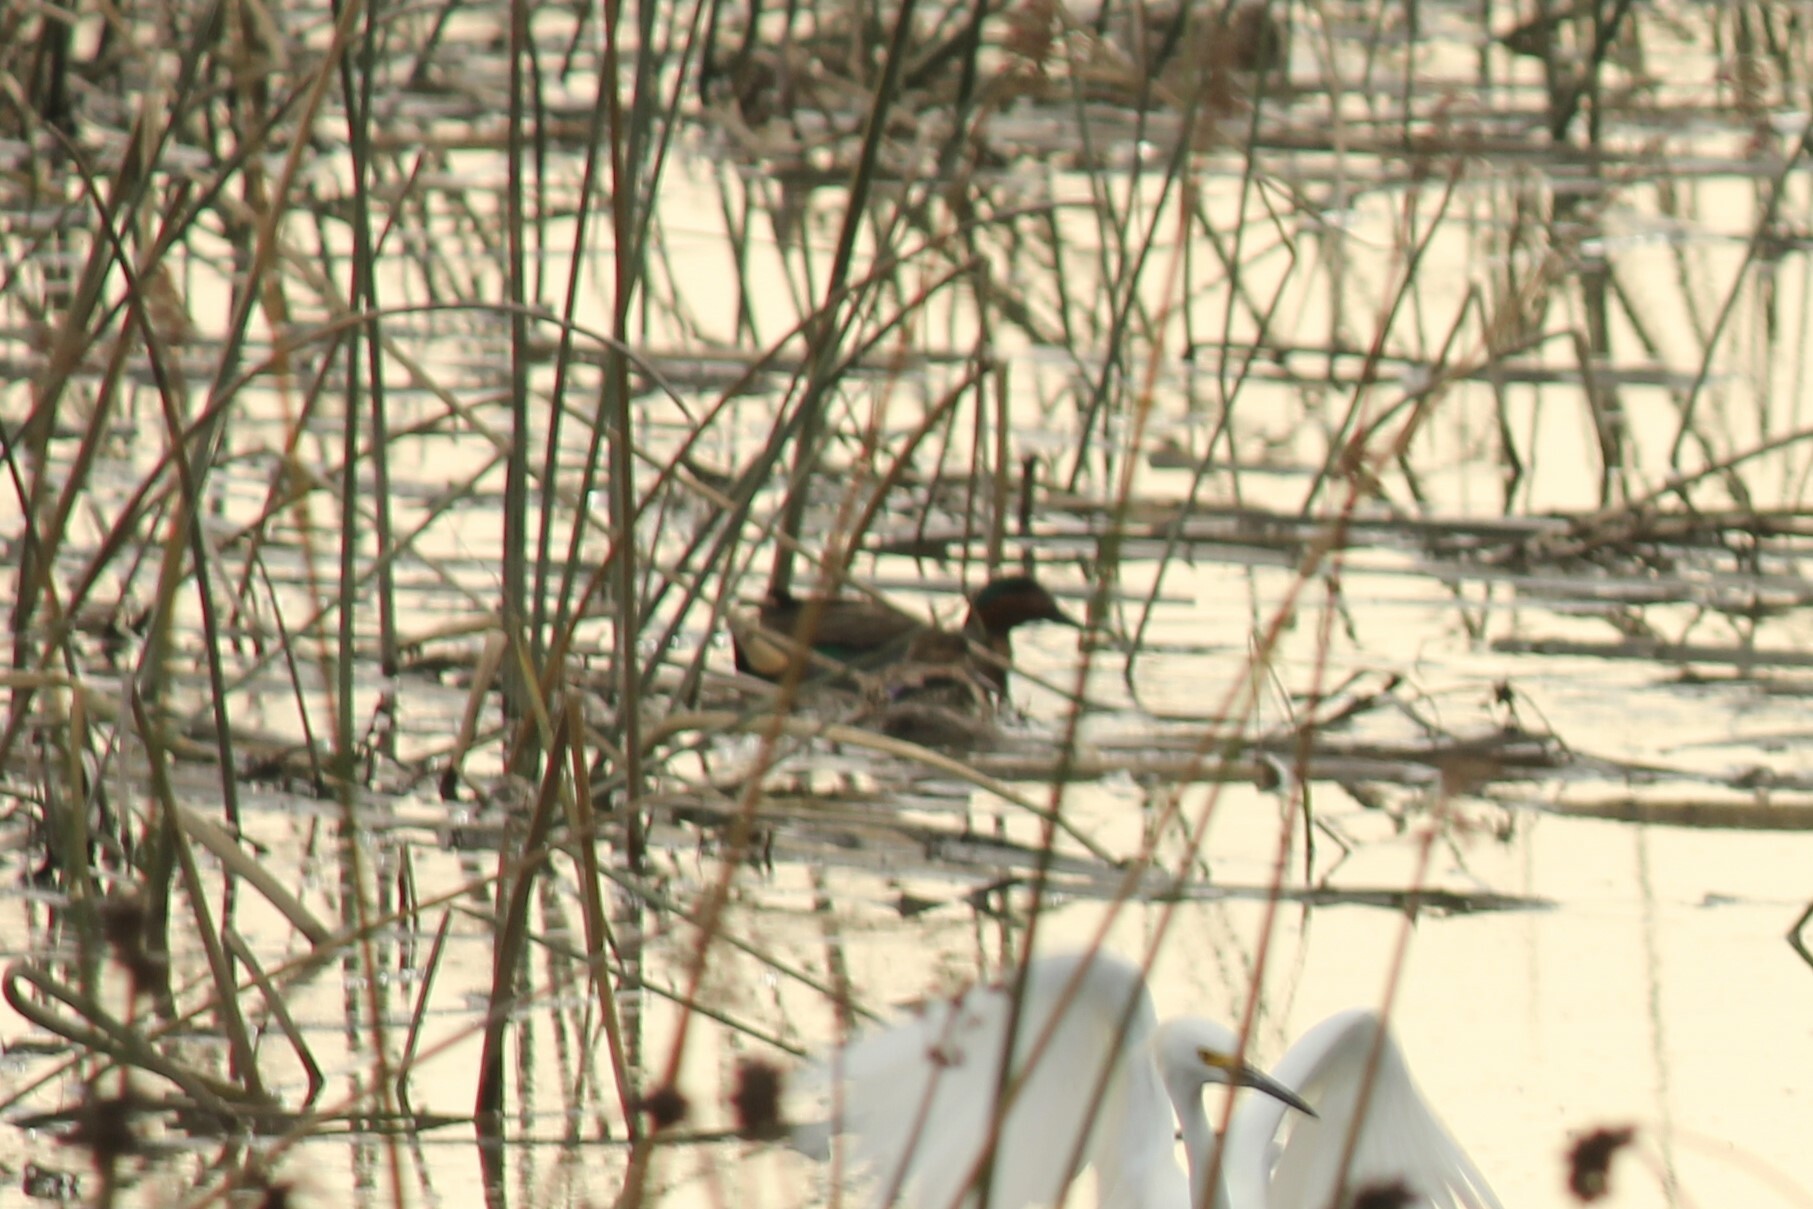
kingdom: Animalia
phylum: Chordata
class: Aves
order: Anseriformes
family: Anatidae
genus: Anas
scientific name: Anas crecca
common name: Eurasian teal
